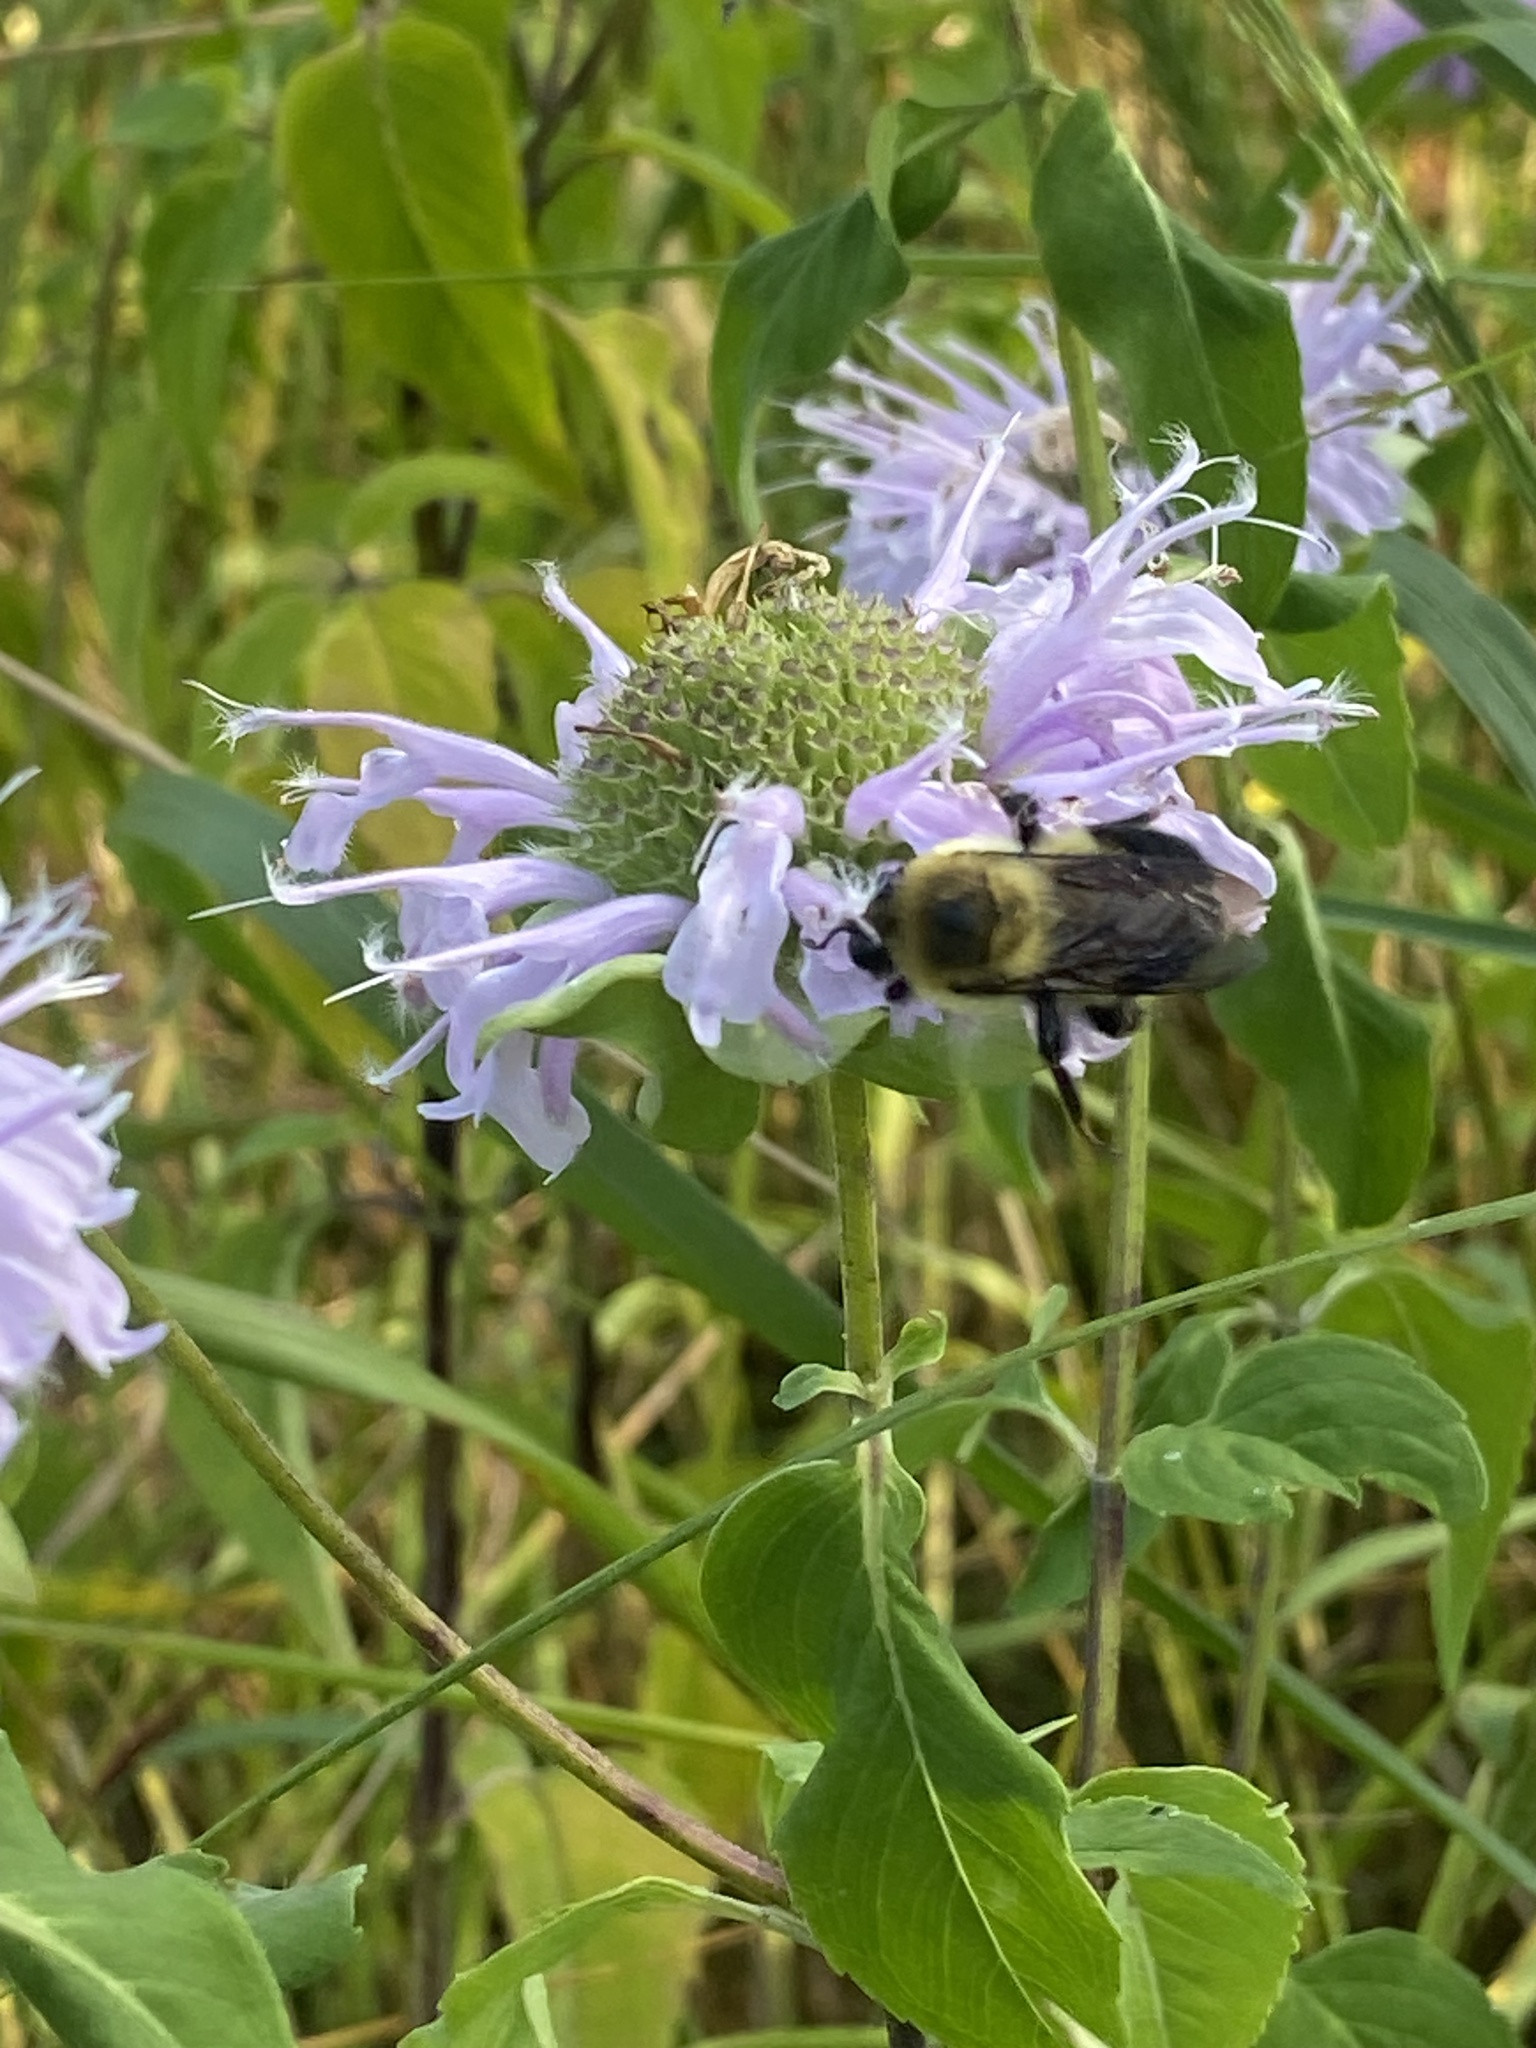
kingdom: Animalia
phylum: Arthropoda
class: Insecta
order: Hymenoptera
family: Apidae
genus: Bombus
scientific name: Bombus griseocollis
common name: Brown-belted bumble bee
